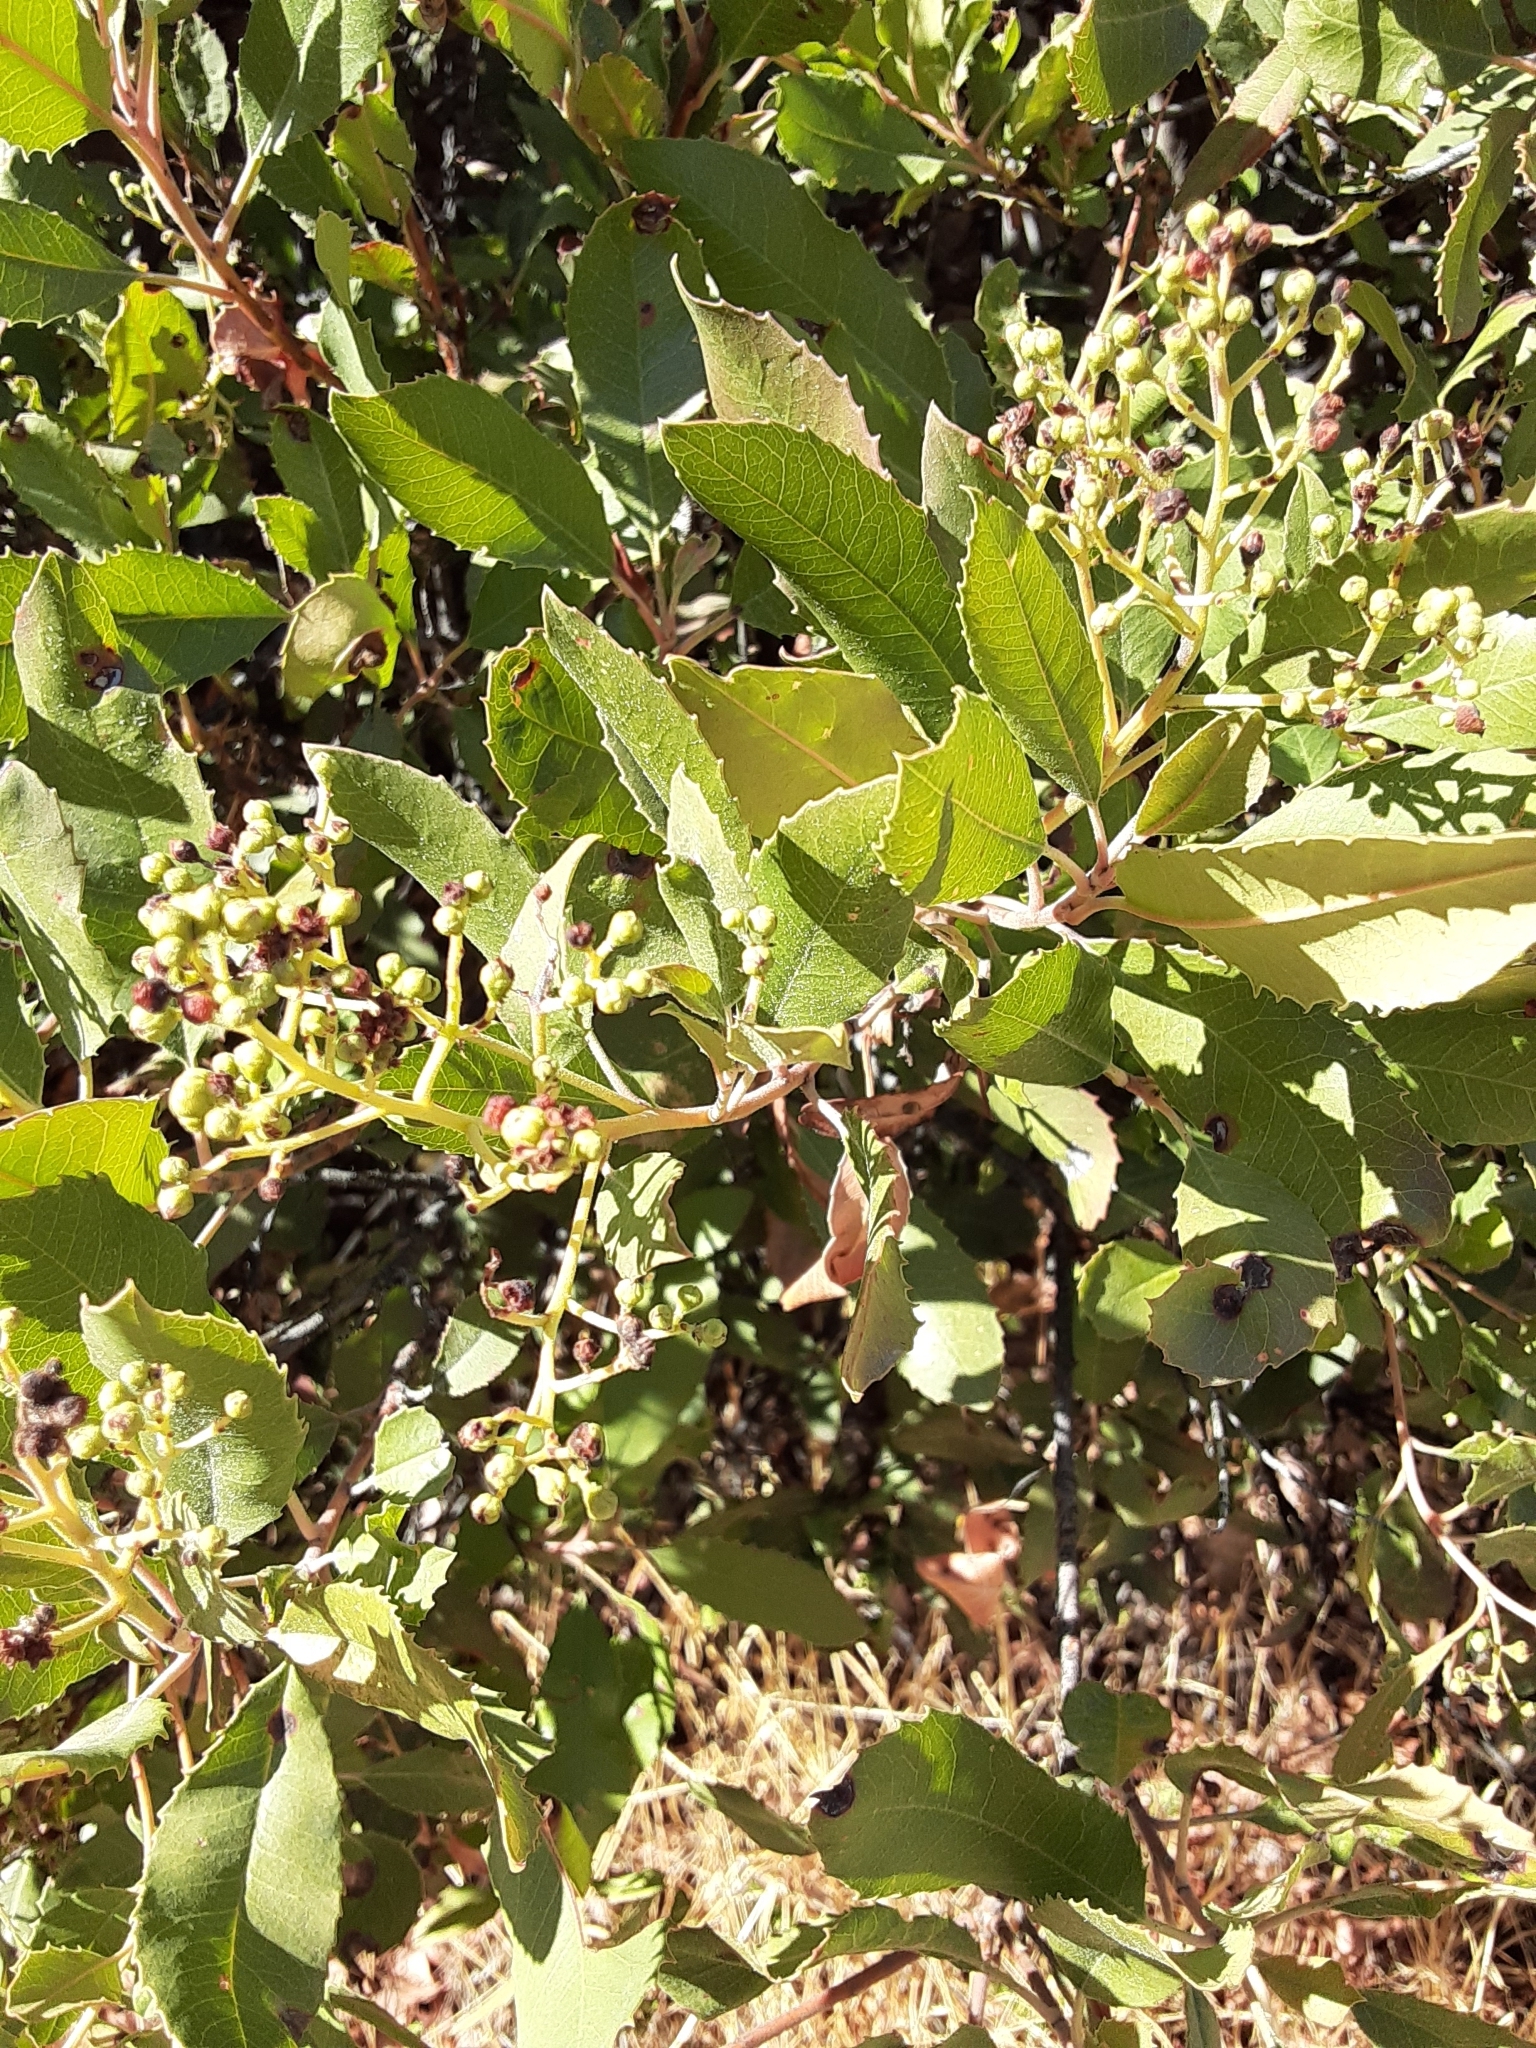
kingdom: Plantae
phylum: Tracheophyta
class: Magnoliopsida
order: Rosales
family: Rosaceae
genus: Heteromeles
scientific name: Heteromeles arbutifolia
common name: California-holly
